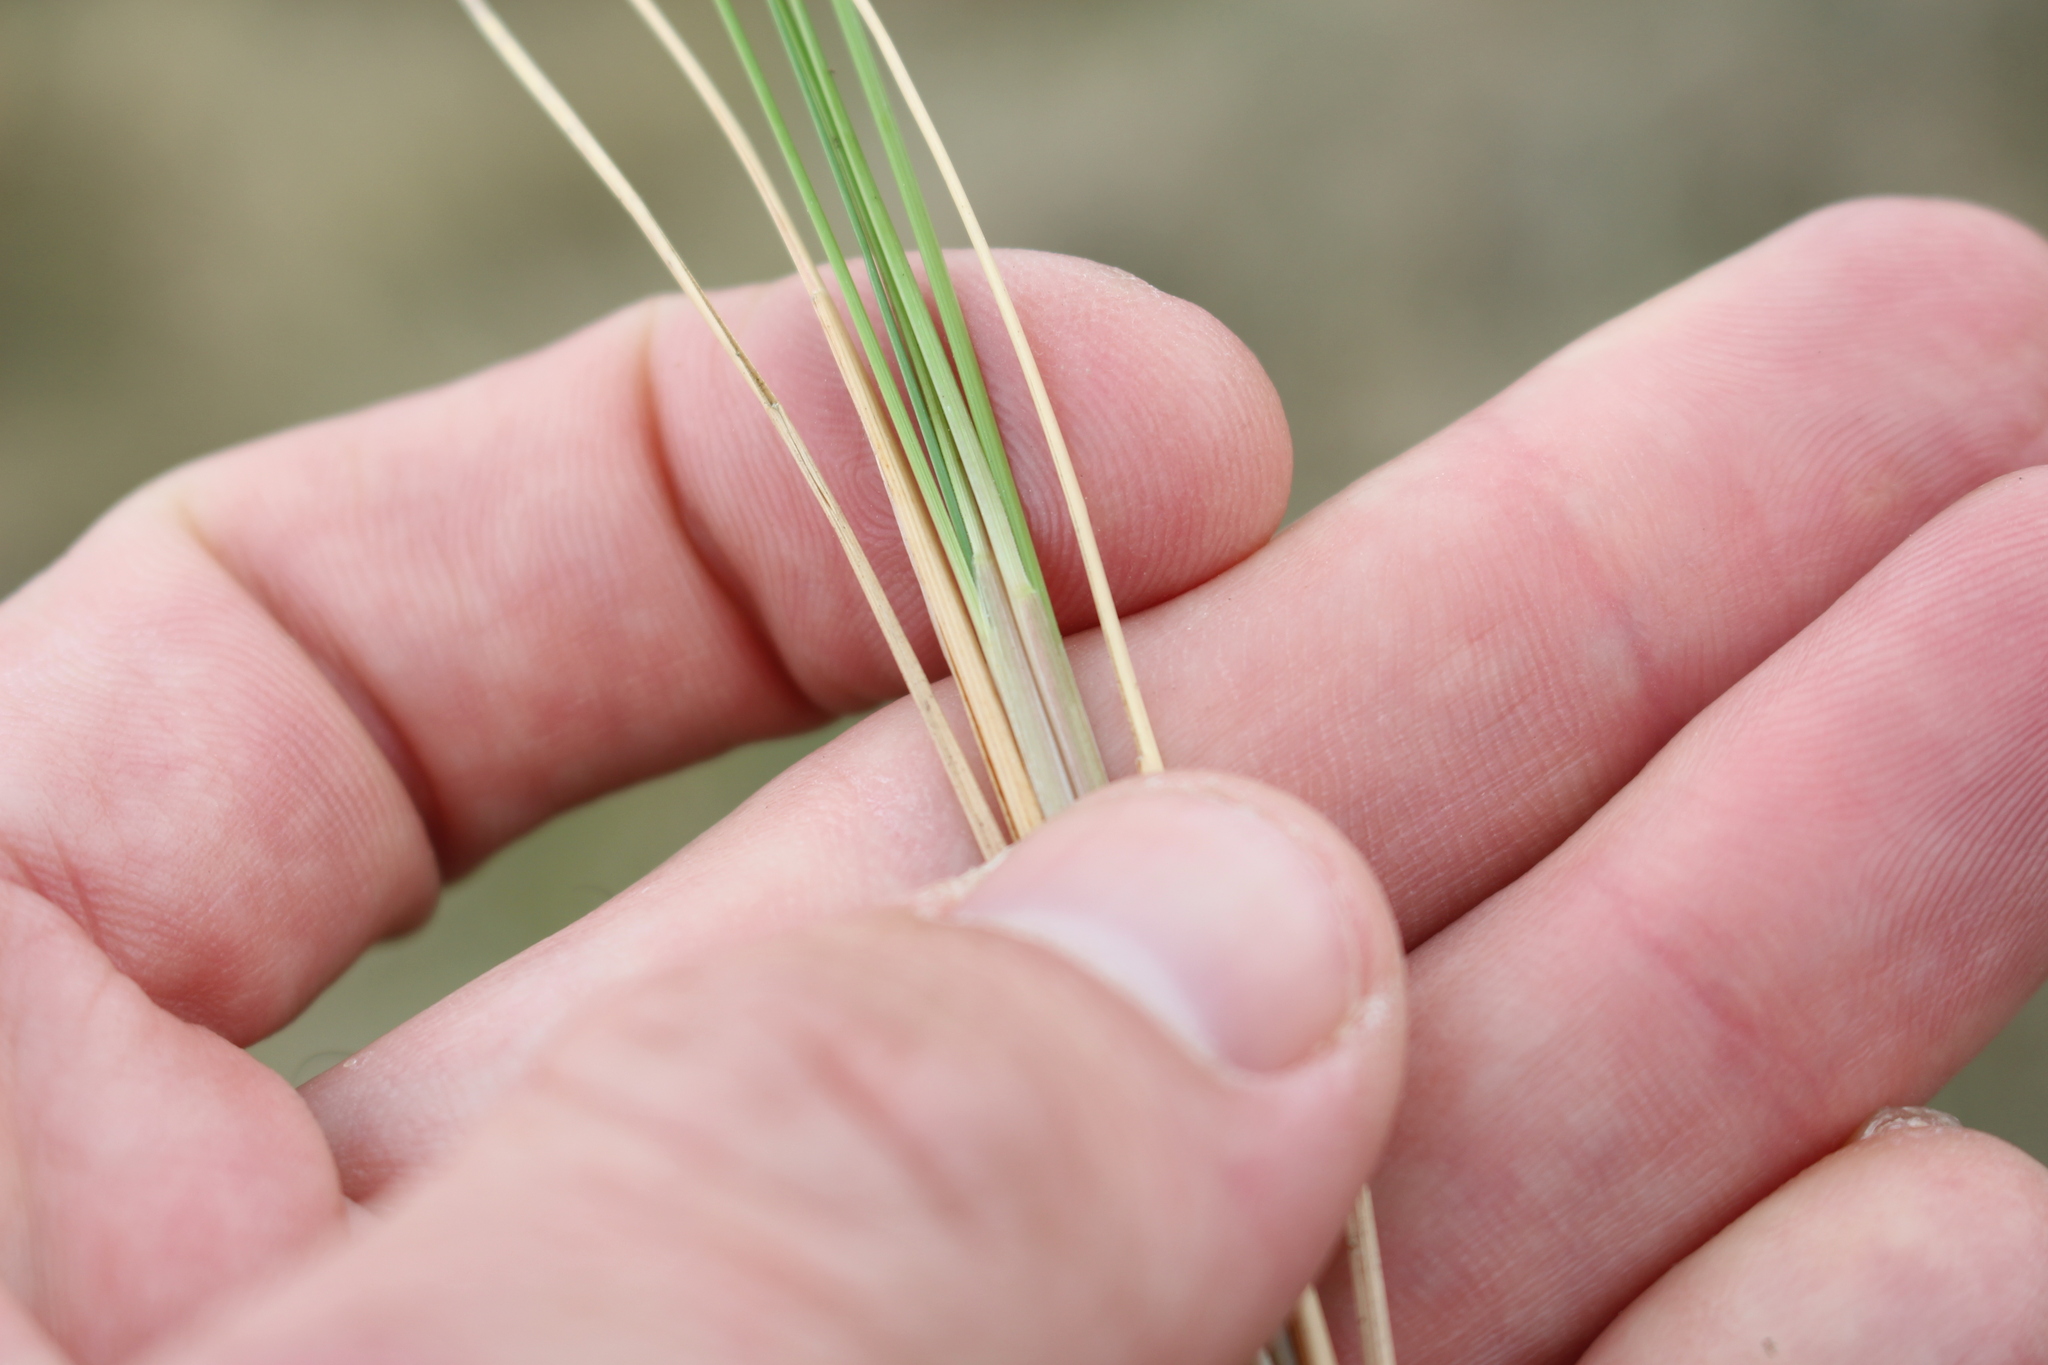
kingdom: Plantae
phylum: Tracheophyta
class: Liliopsida
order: Poales
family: Poaceae
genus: Poa
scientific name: Poa cita
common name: Silver tussock
